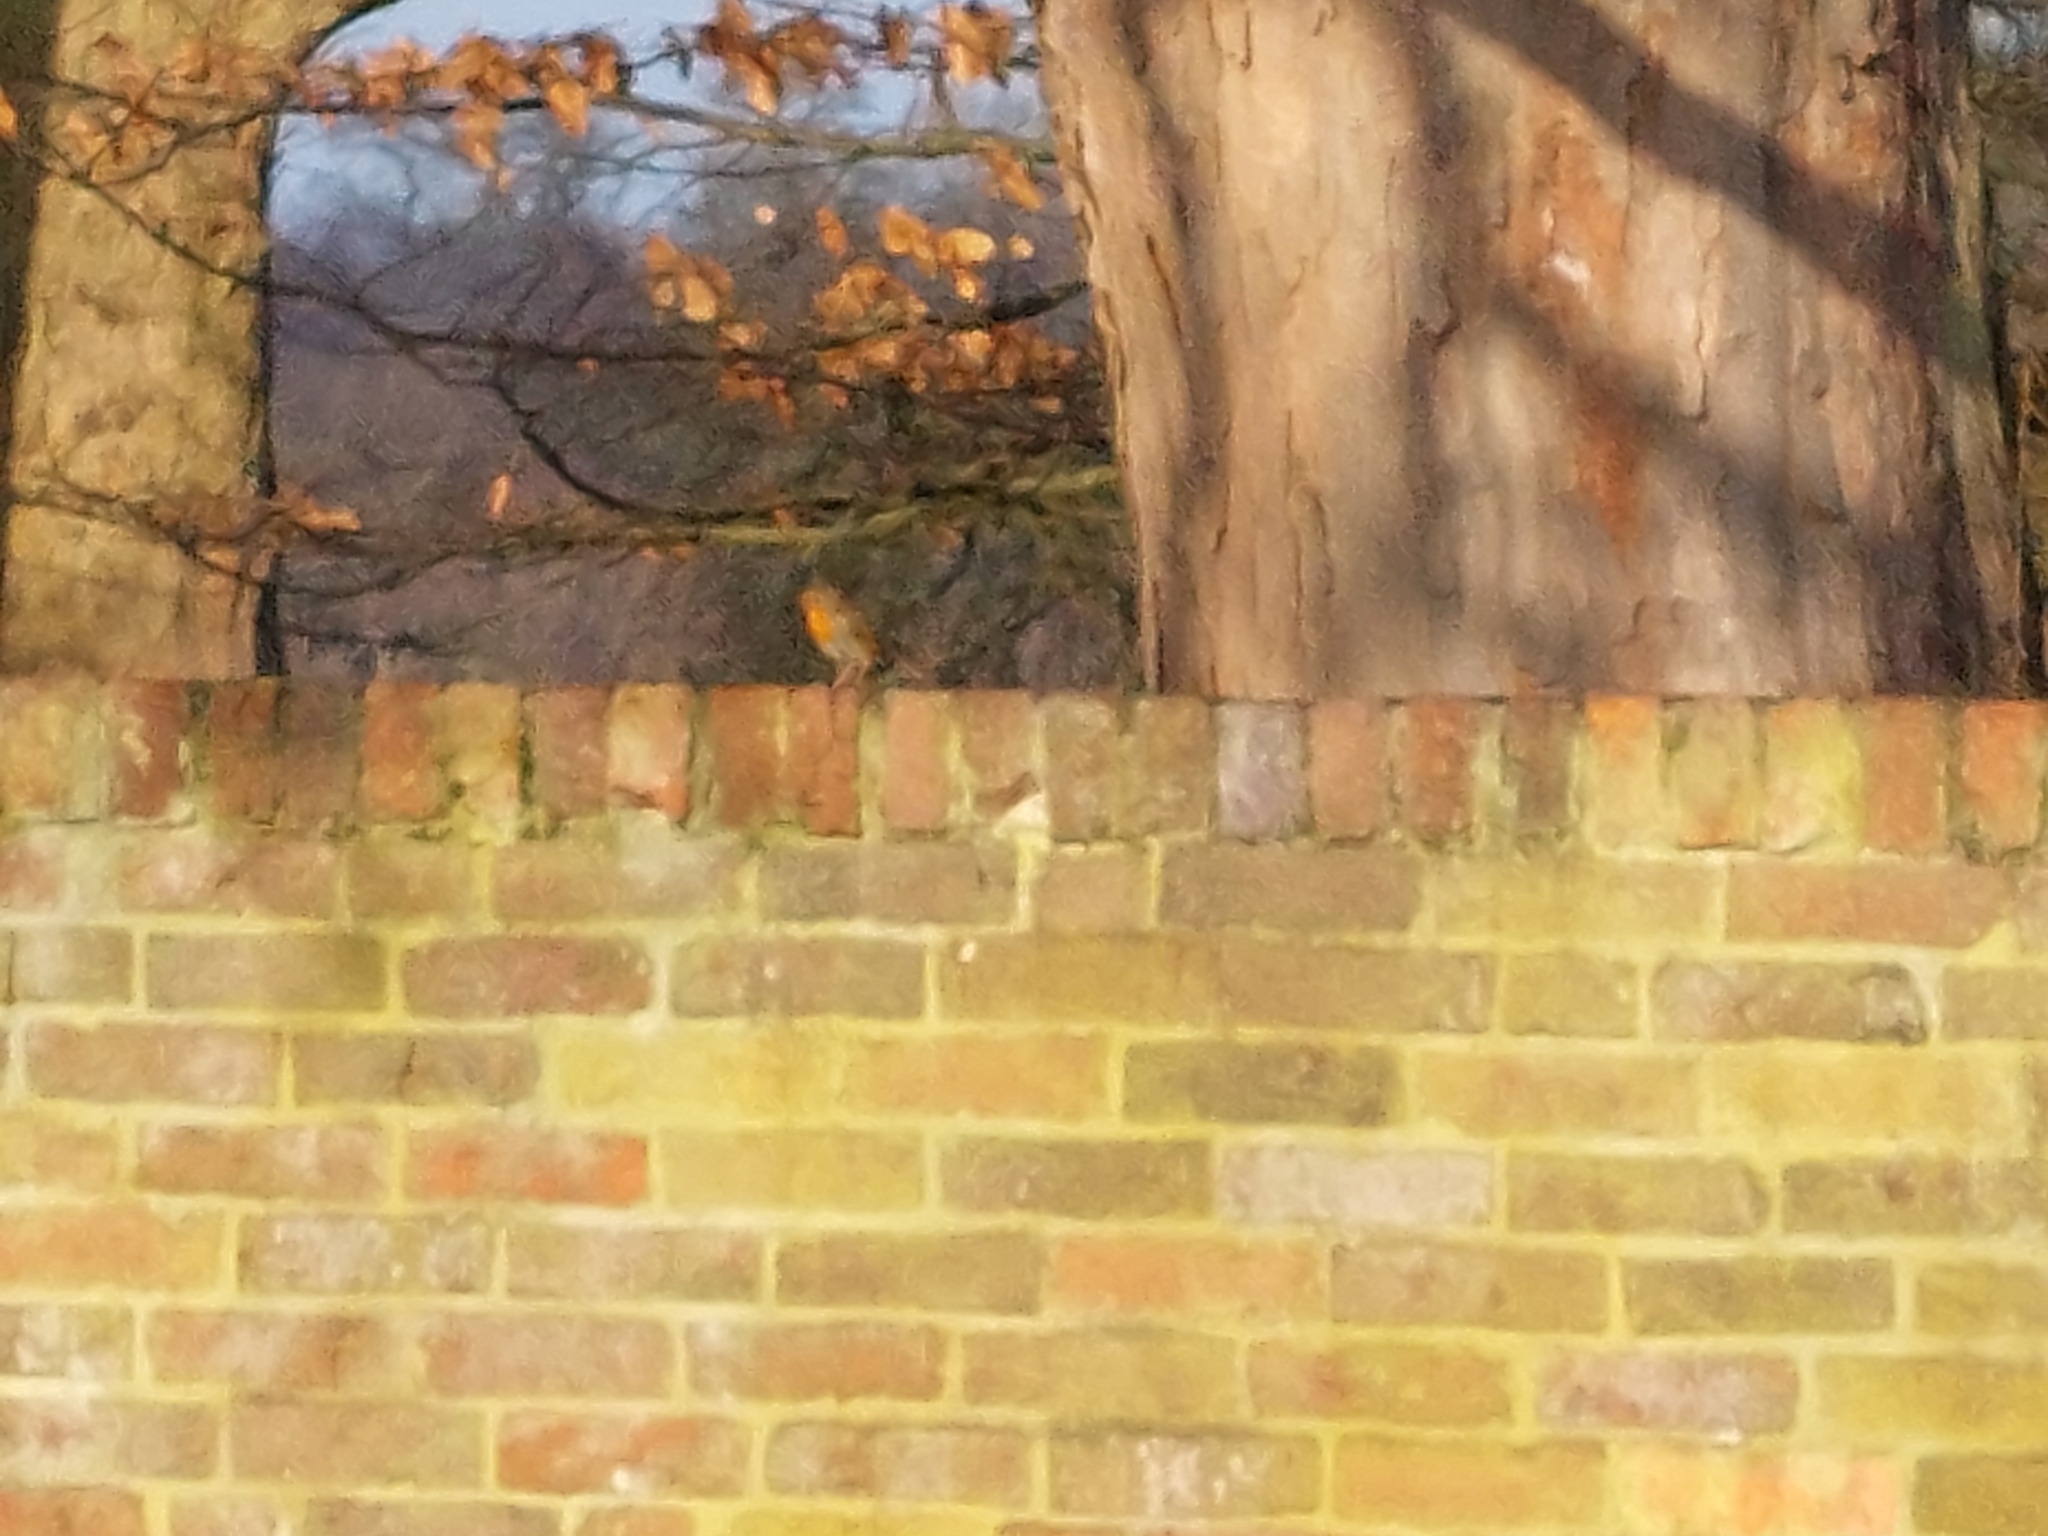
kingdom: Animalia
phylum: Chordata
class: Aves
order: Passeriformes
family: Muscicapidae
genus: Erithacus
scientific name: Erithacus rubecula
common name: European robin
